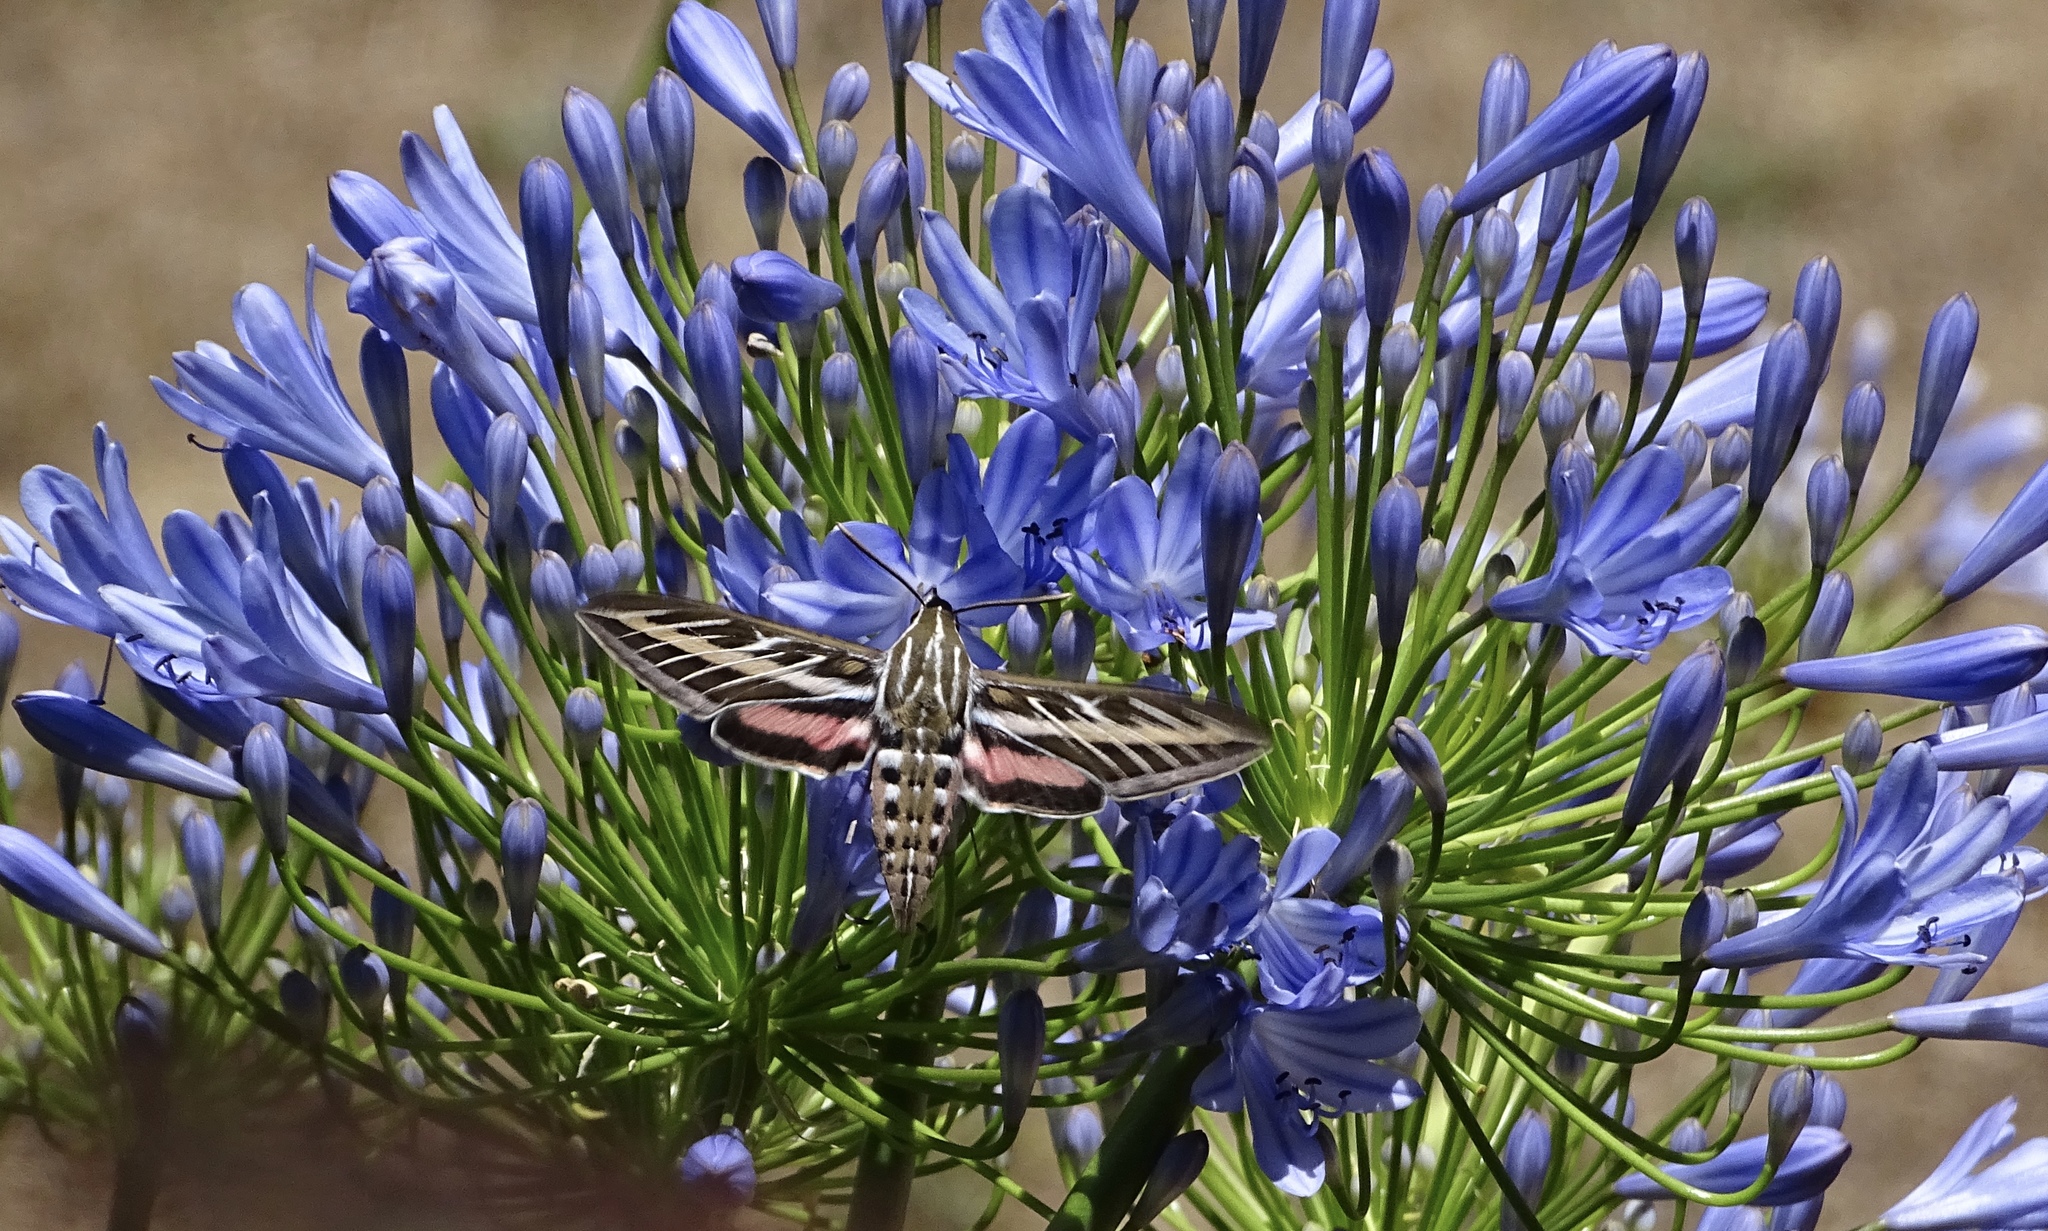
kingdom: Animalia
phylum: Arthropoda
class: Insecta
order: Lepidoptera
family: Sphingidae
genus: Hyles
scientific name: Hyles lineata
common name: White-lined sphinx
